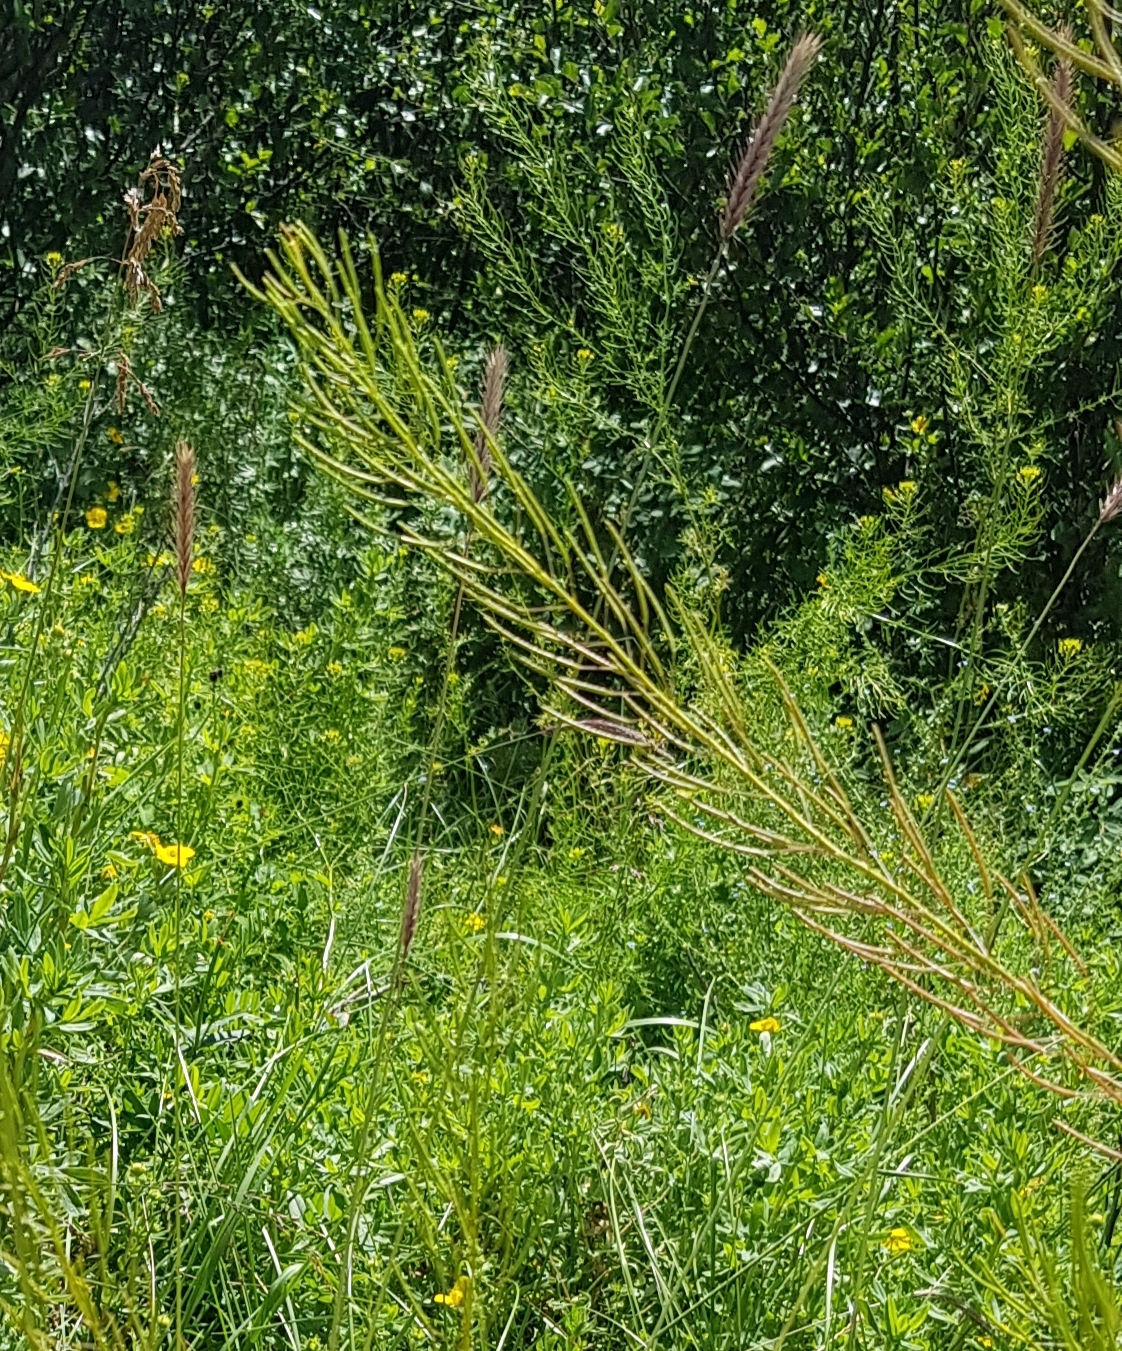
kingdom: Plantae
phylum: Tracheophyta
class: Magnoliopsida
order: Brassicales
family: Brassicaceae
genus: Descurainia
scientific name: Descurainia sophia
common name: Flixweed
